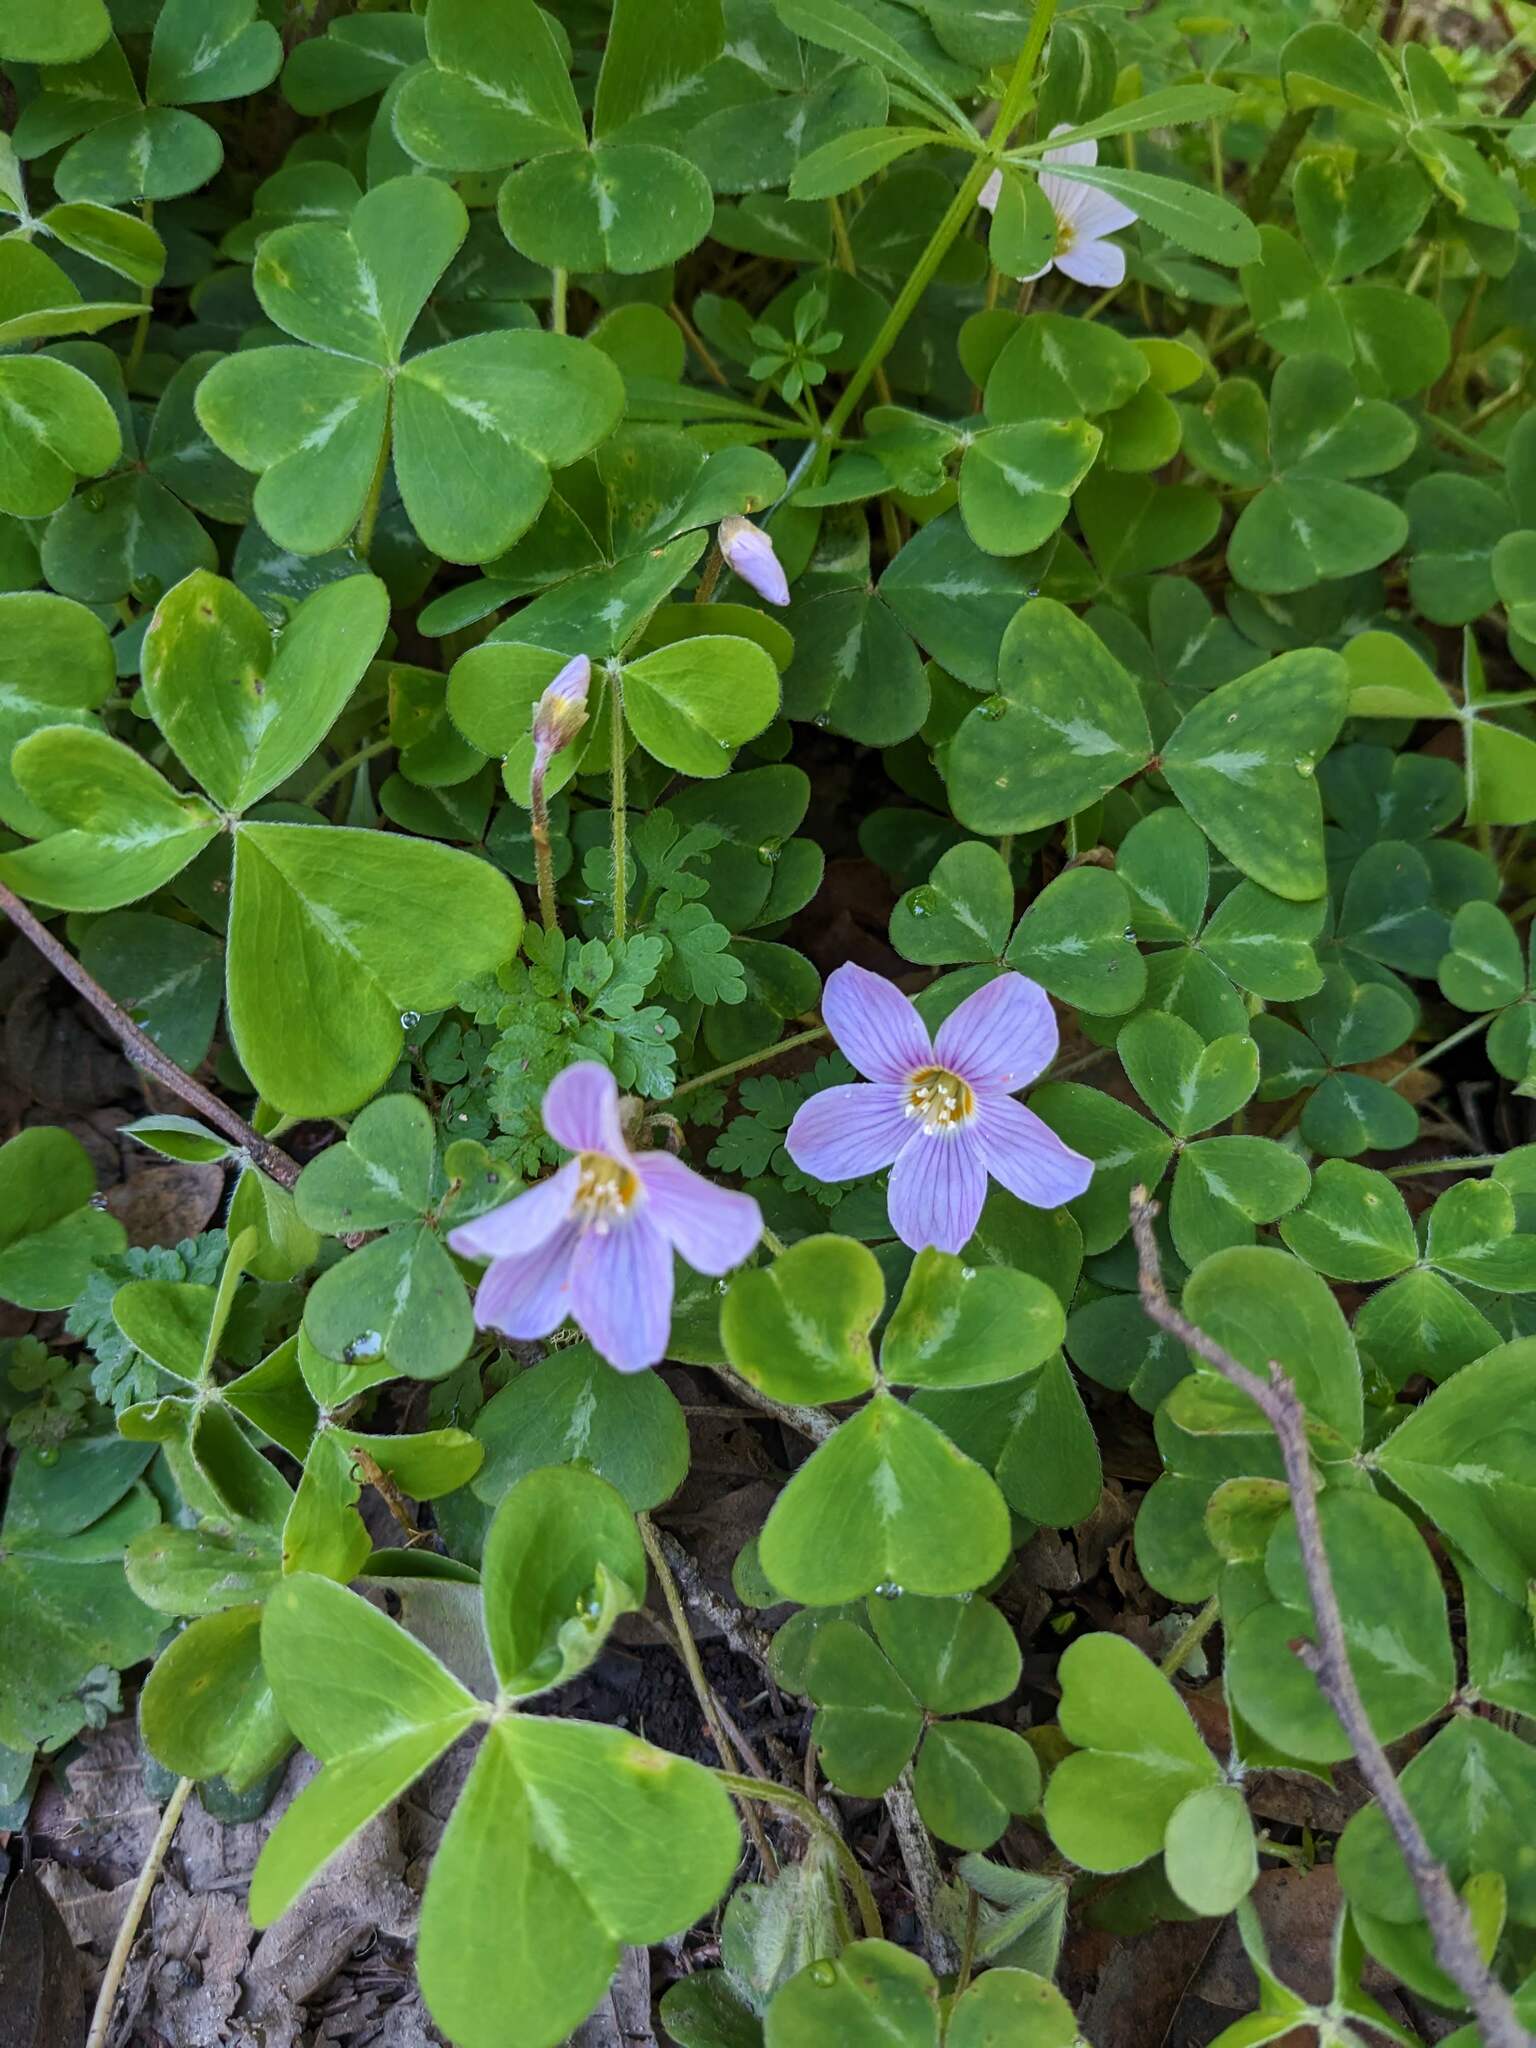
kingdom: Plantae
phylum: Tracheophyta
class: Magnoliopsida
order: Oxalidales
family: Oxalidaceae
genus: Oxalis
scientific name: Oxalis oregana
